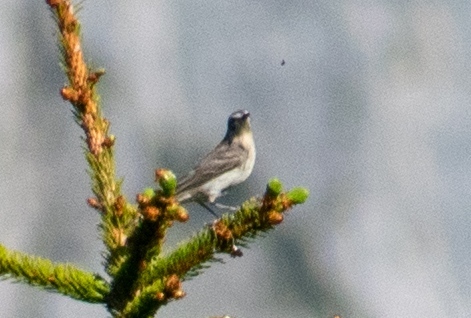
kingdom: Animalia
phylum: Chordata
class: Aves
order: Passeriformes
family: Motacillidae
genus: Anthus
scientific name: Anthus spinoletta
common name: Water pipit
